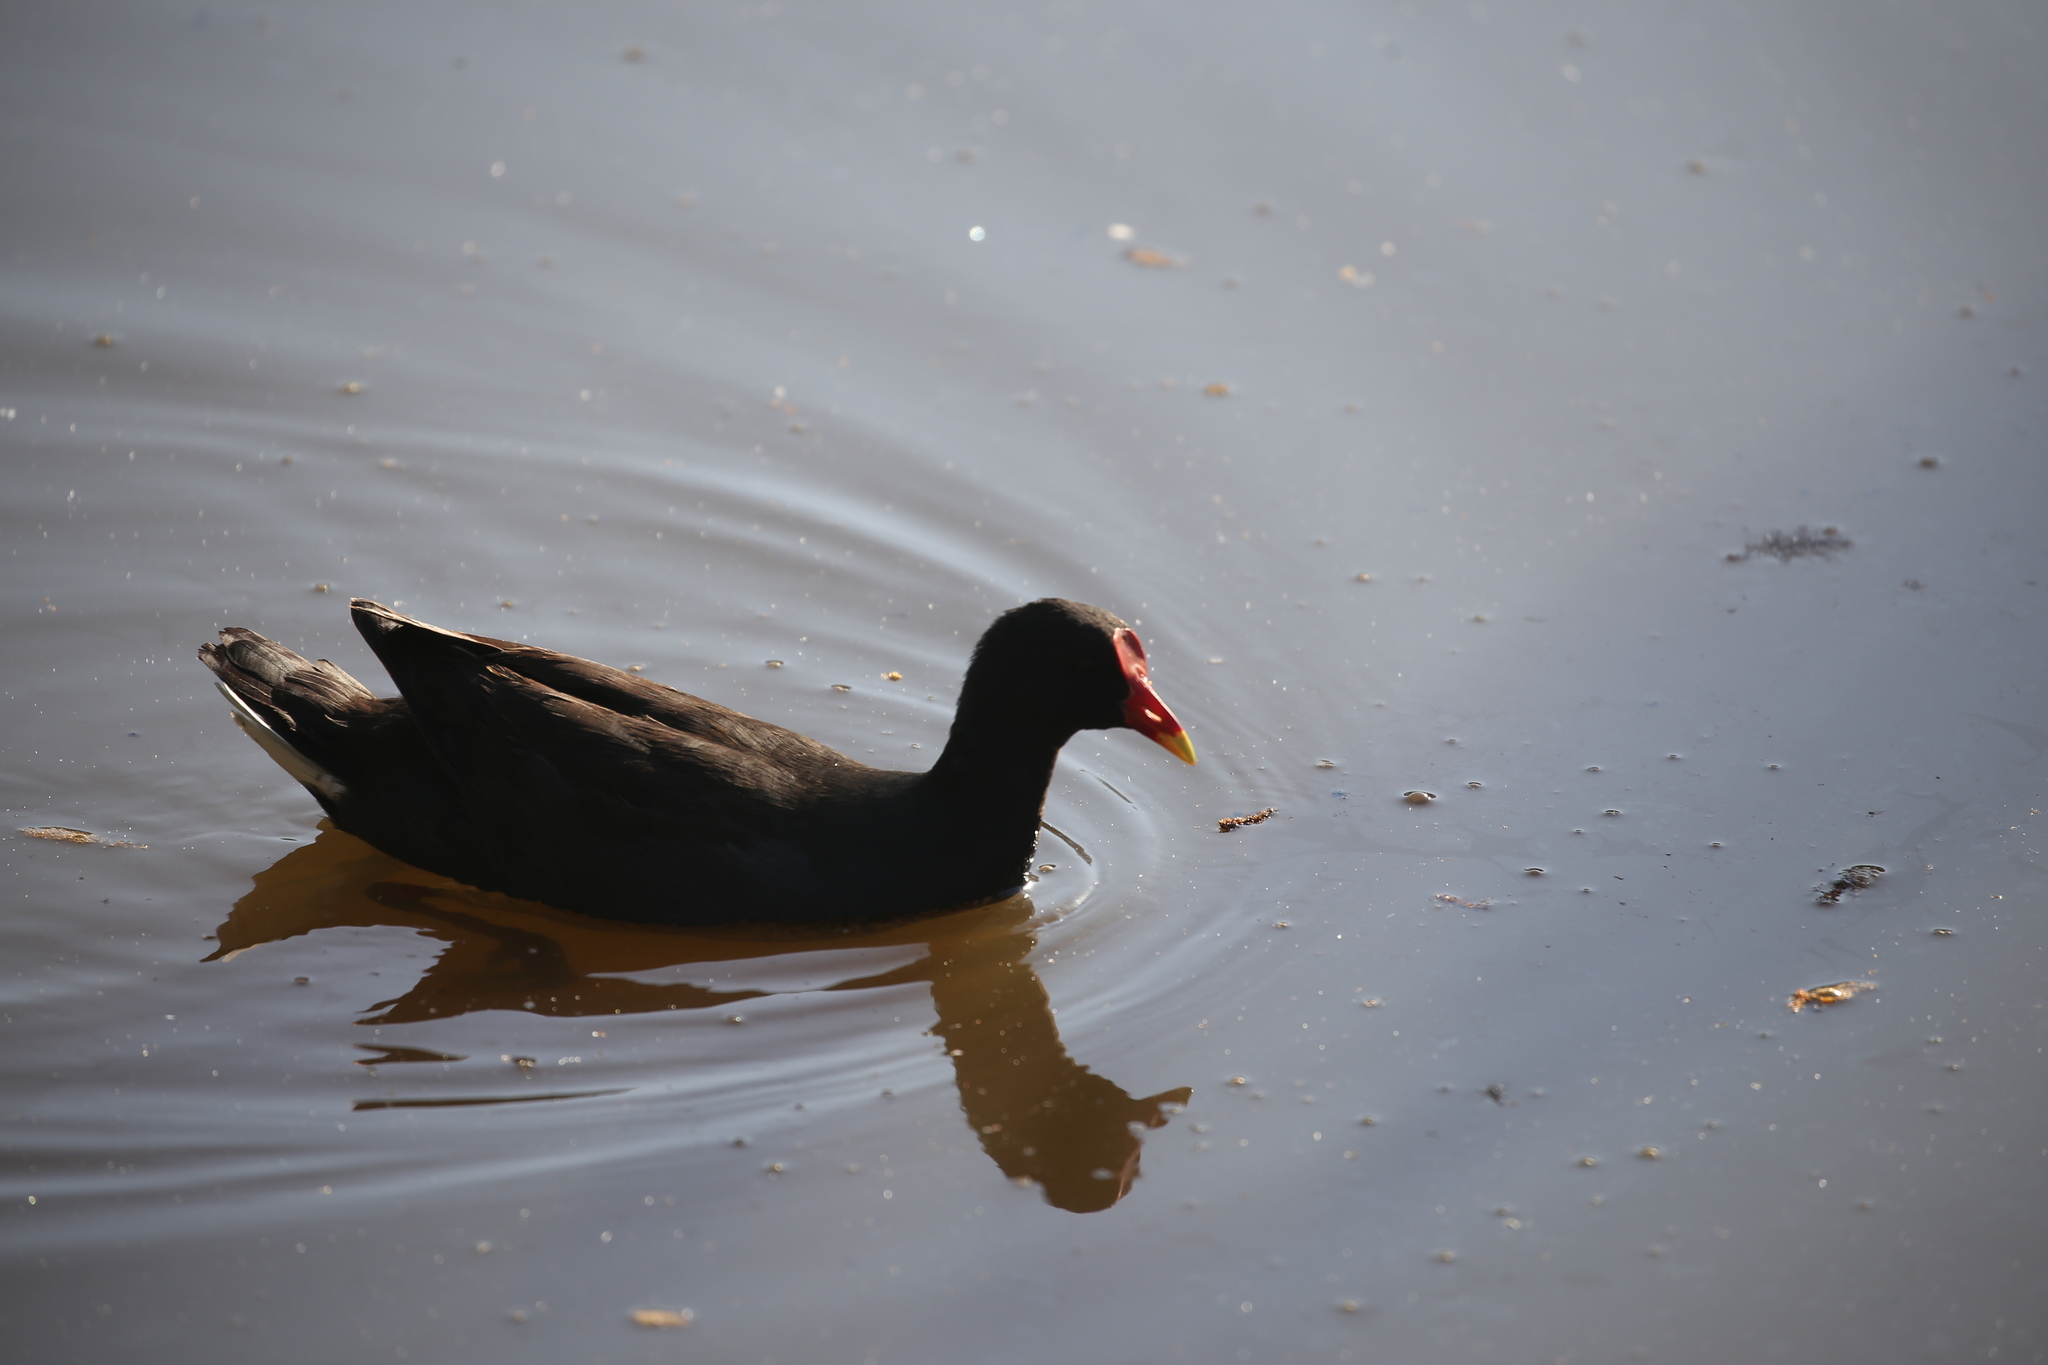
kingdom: Animalia
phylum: Chordata
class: Aves
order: Gruiformes
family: Rallidae
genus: Gallinula
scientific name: Gallinula tenebrosa
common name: Dusky moorhen
